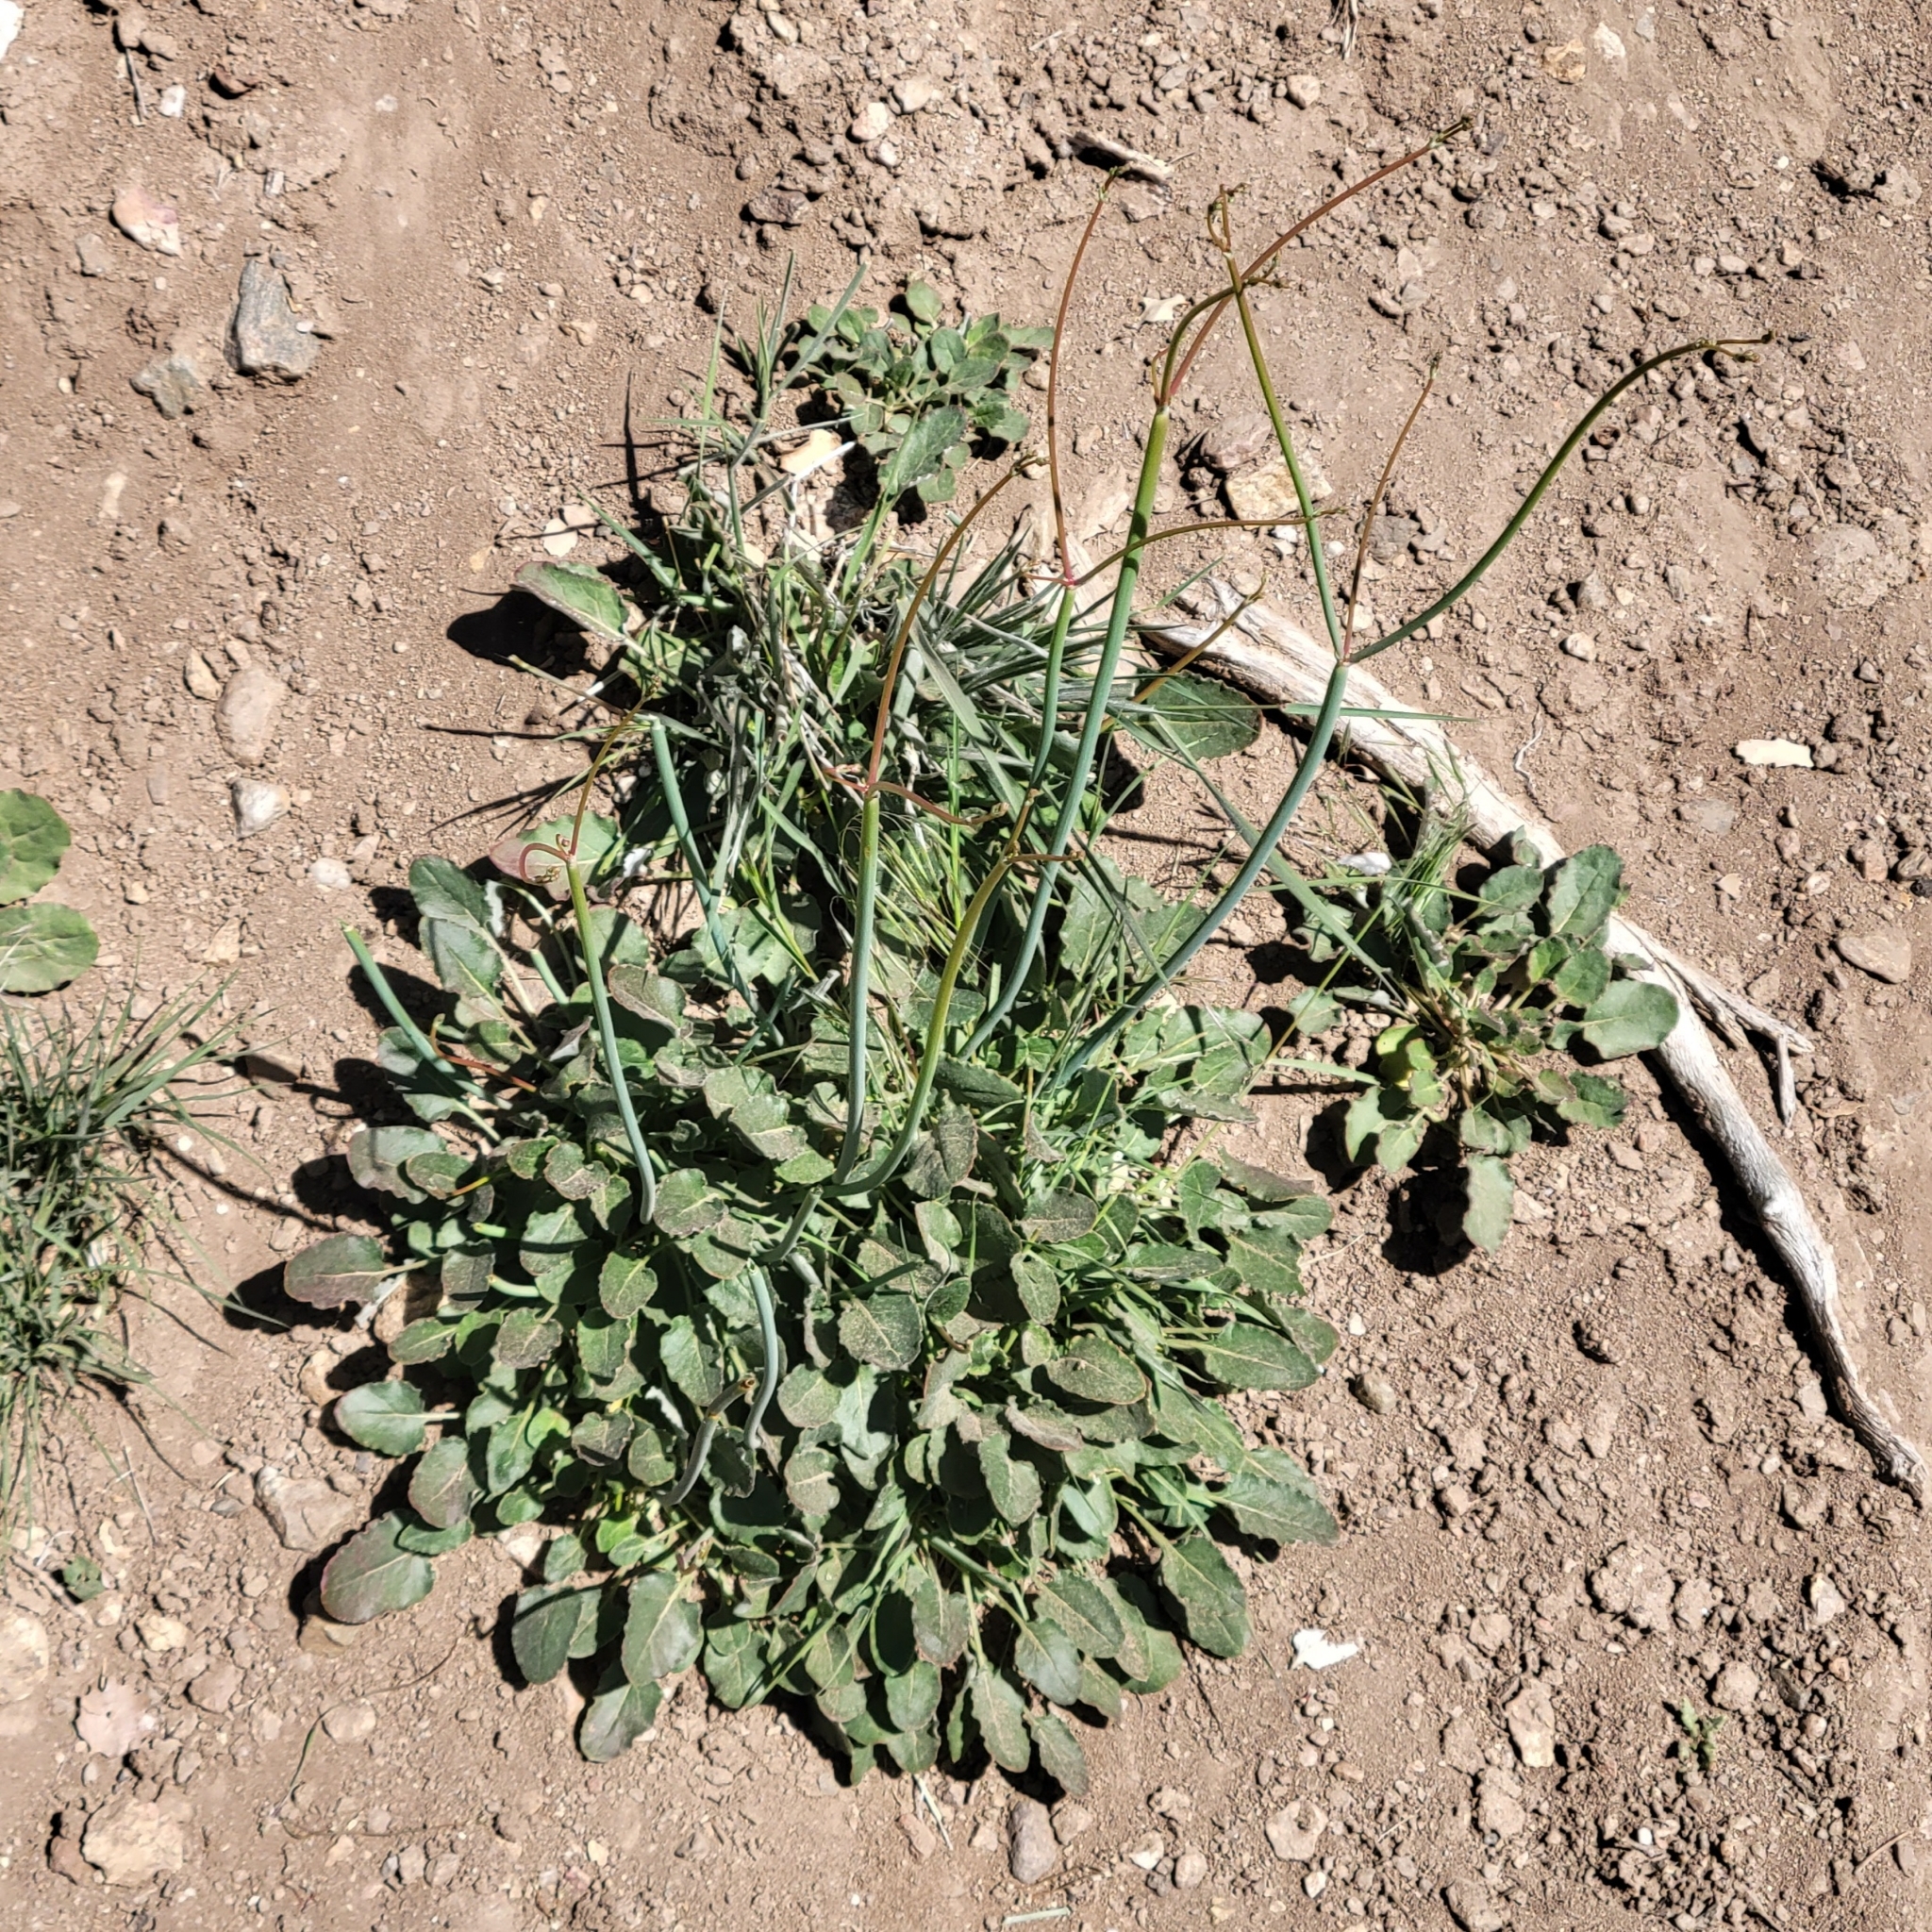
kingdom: Plantae
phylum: Tracheophyta
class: Magnoliopsida
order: Caryophyllales
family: Polygonaceae
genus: Eriogonum
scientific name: Eriogonum nudum
